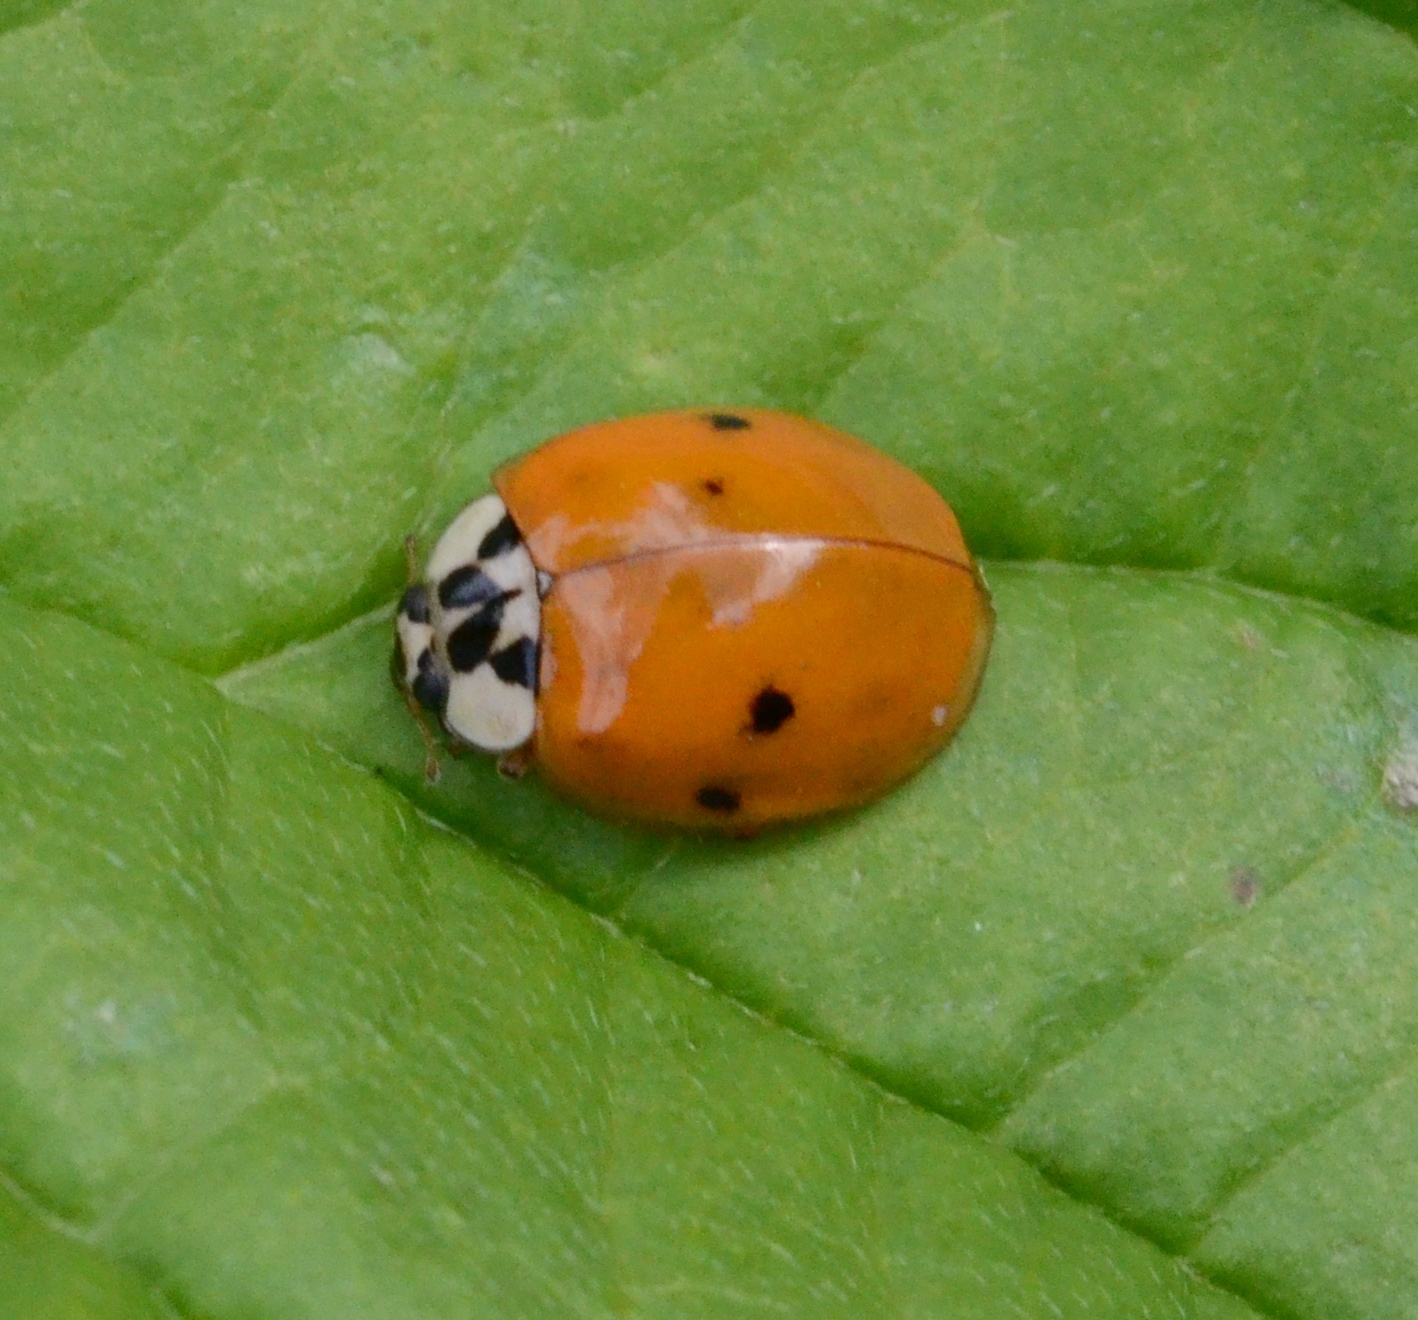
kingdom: Animalia
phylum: Arthropoda
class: Insecta
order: Coleoptera
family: Coccinellidae
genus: Harmonia
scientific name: Harmonia axyridis
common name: Harlequin ladybird
